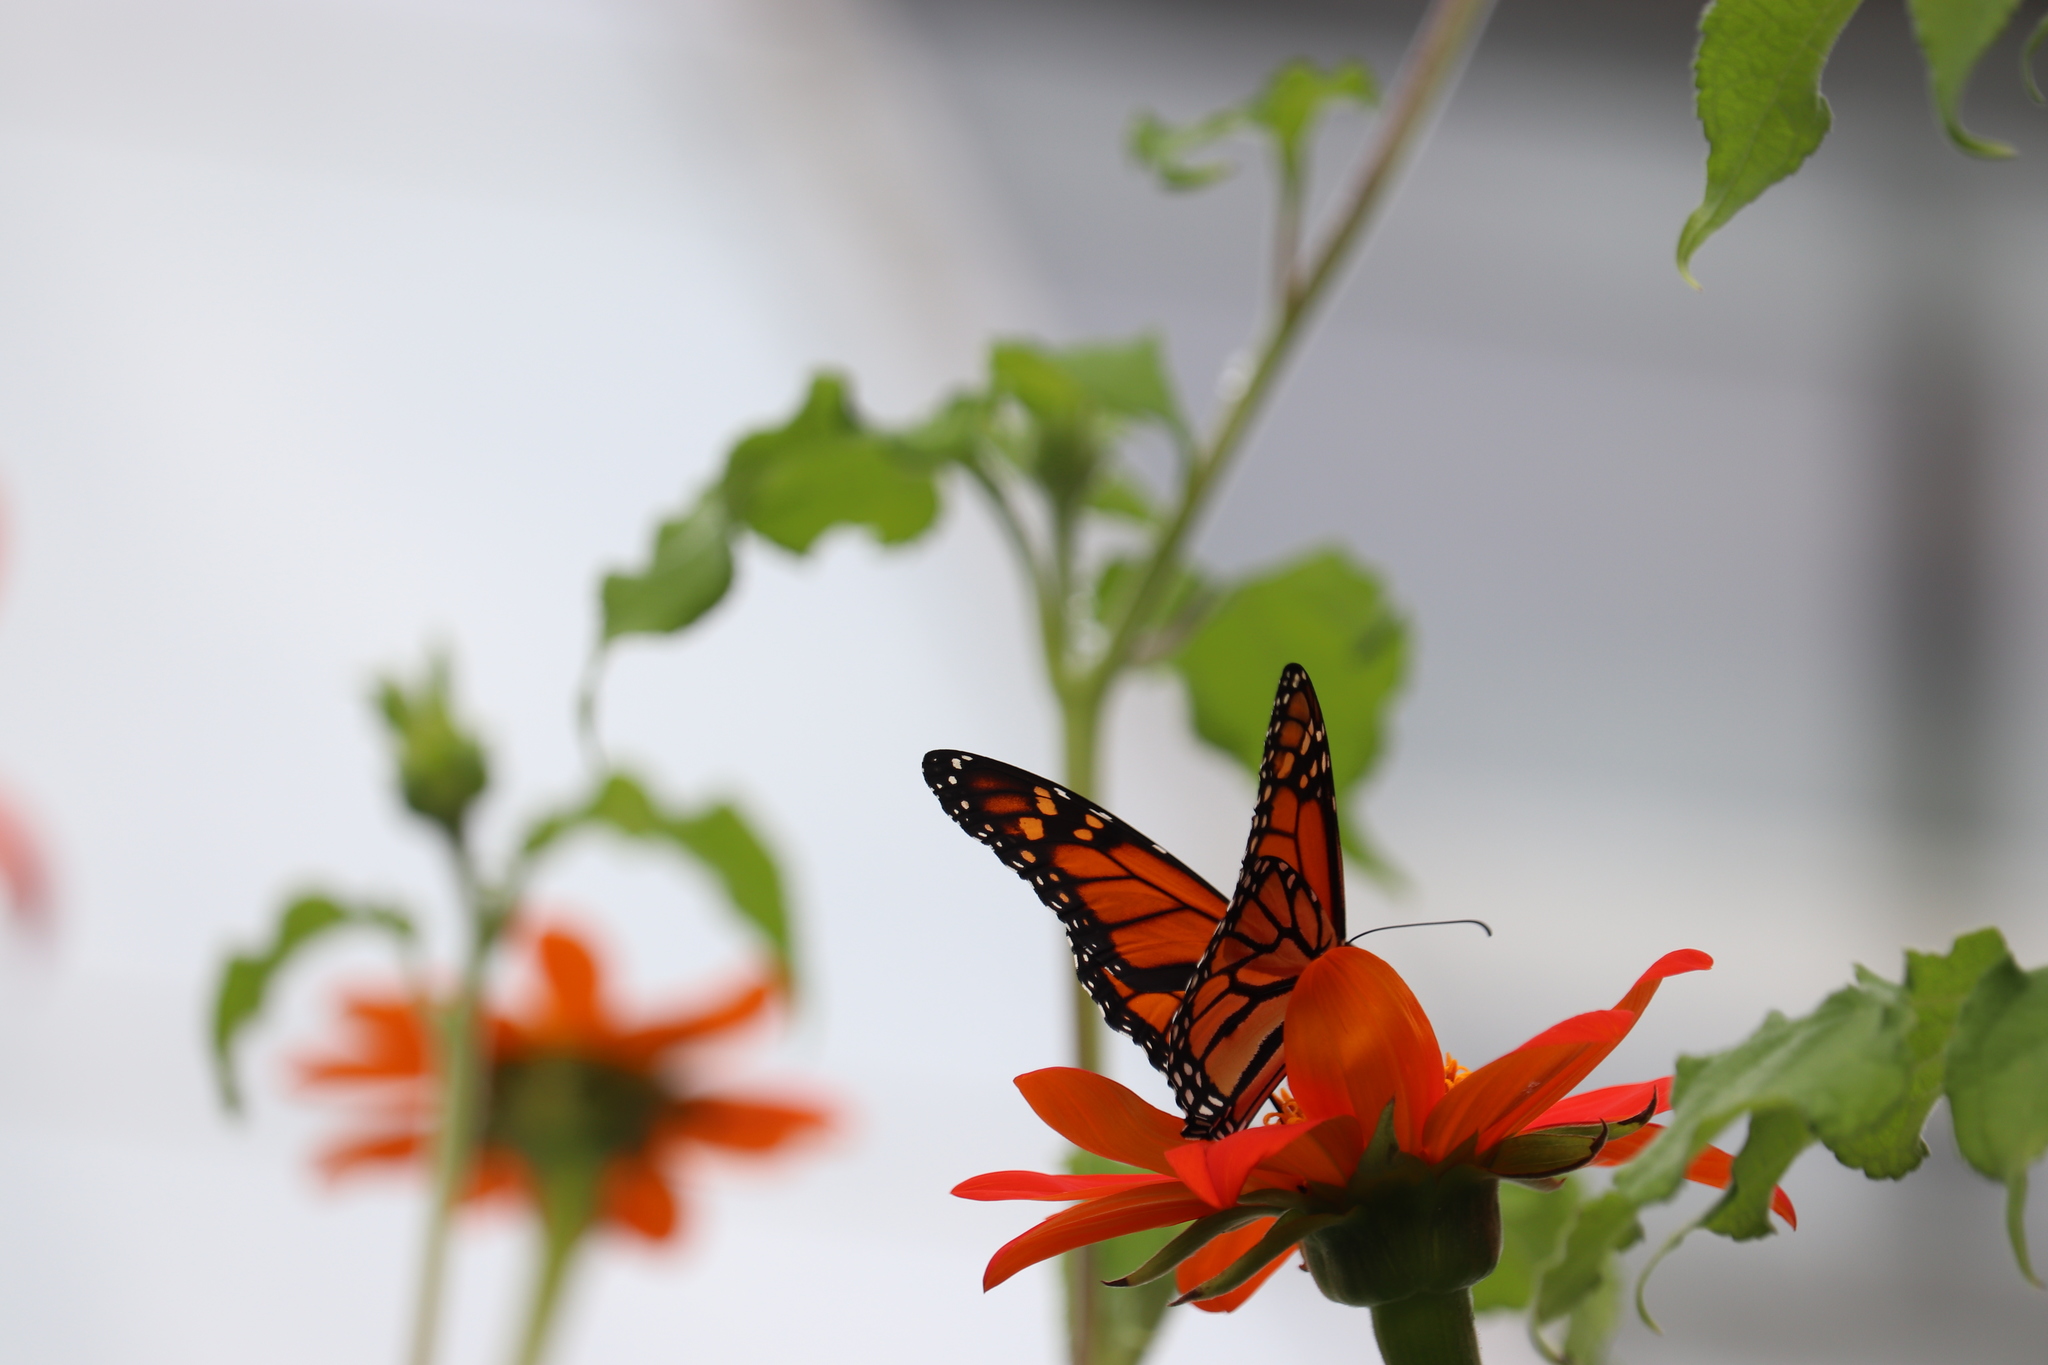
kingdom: Animalia
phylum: Arthropoda
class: Insecta
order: Lepidoptera
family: Nymphalidae
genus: Danaus
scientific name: Danaus plexippus
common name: Monarch
